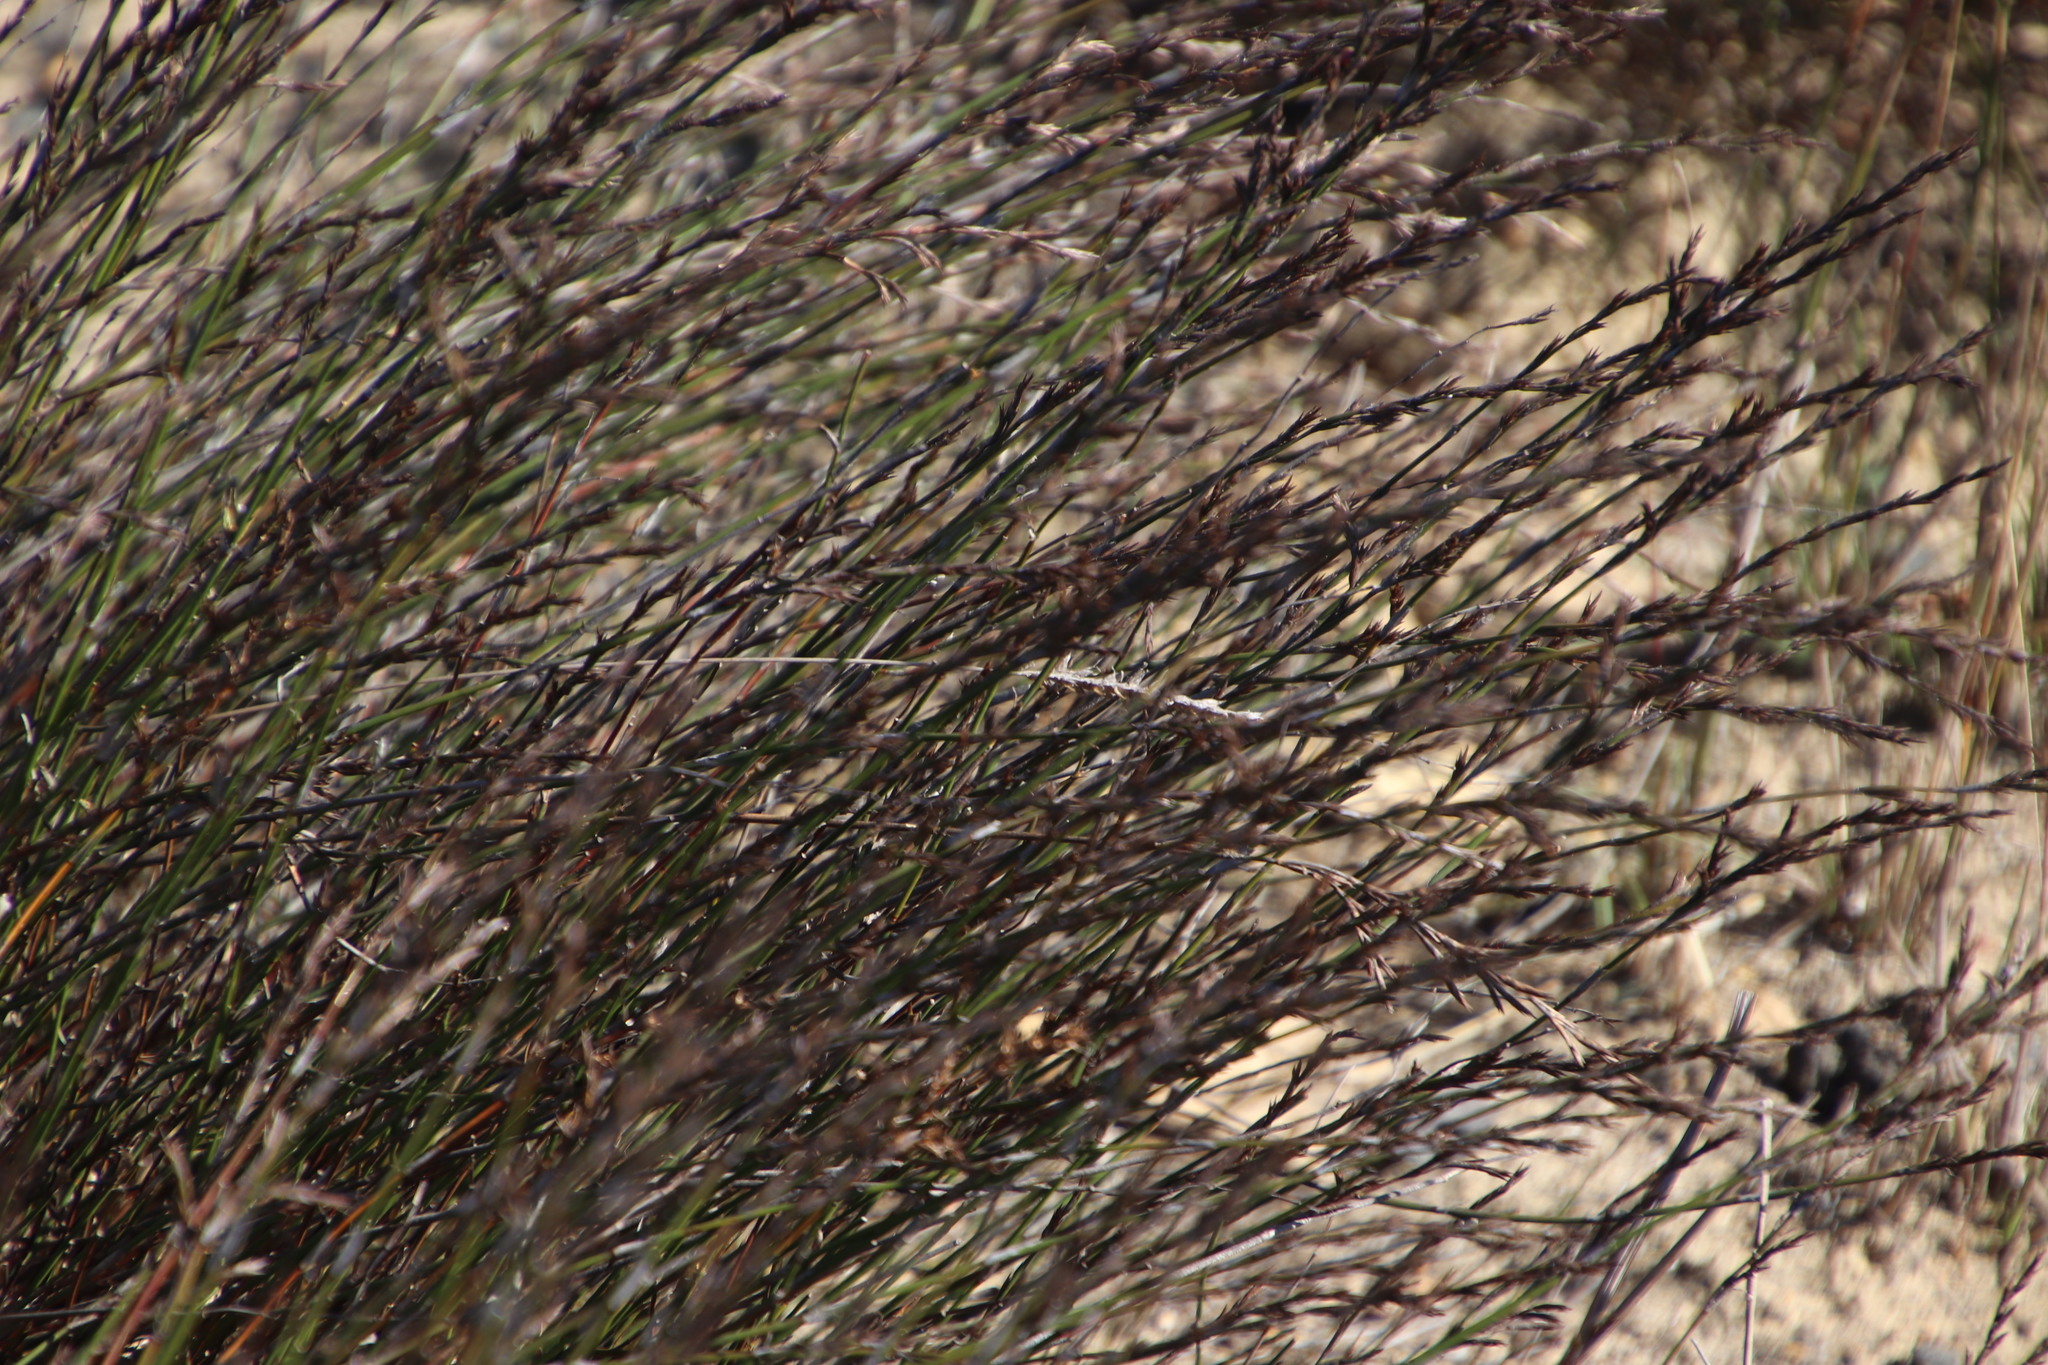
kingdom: Plantae
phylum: Tracheophyta
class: Liliopsida
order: Poales
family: Restionaceae
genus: Restio
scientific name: Restio sieberi
